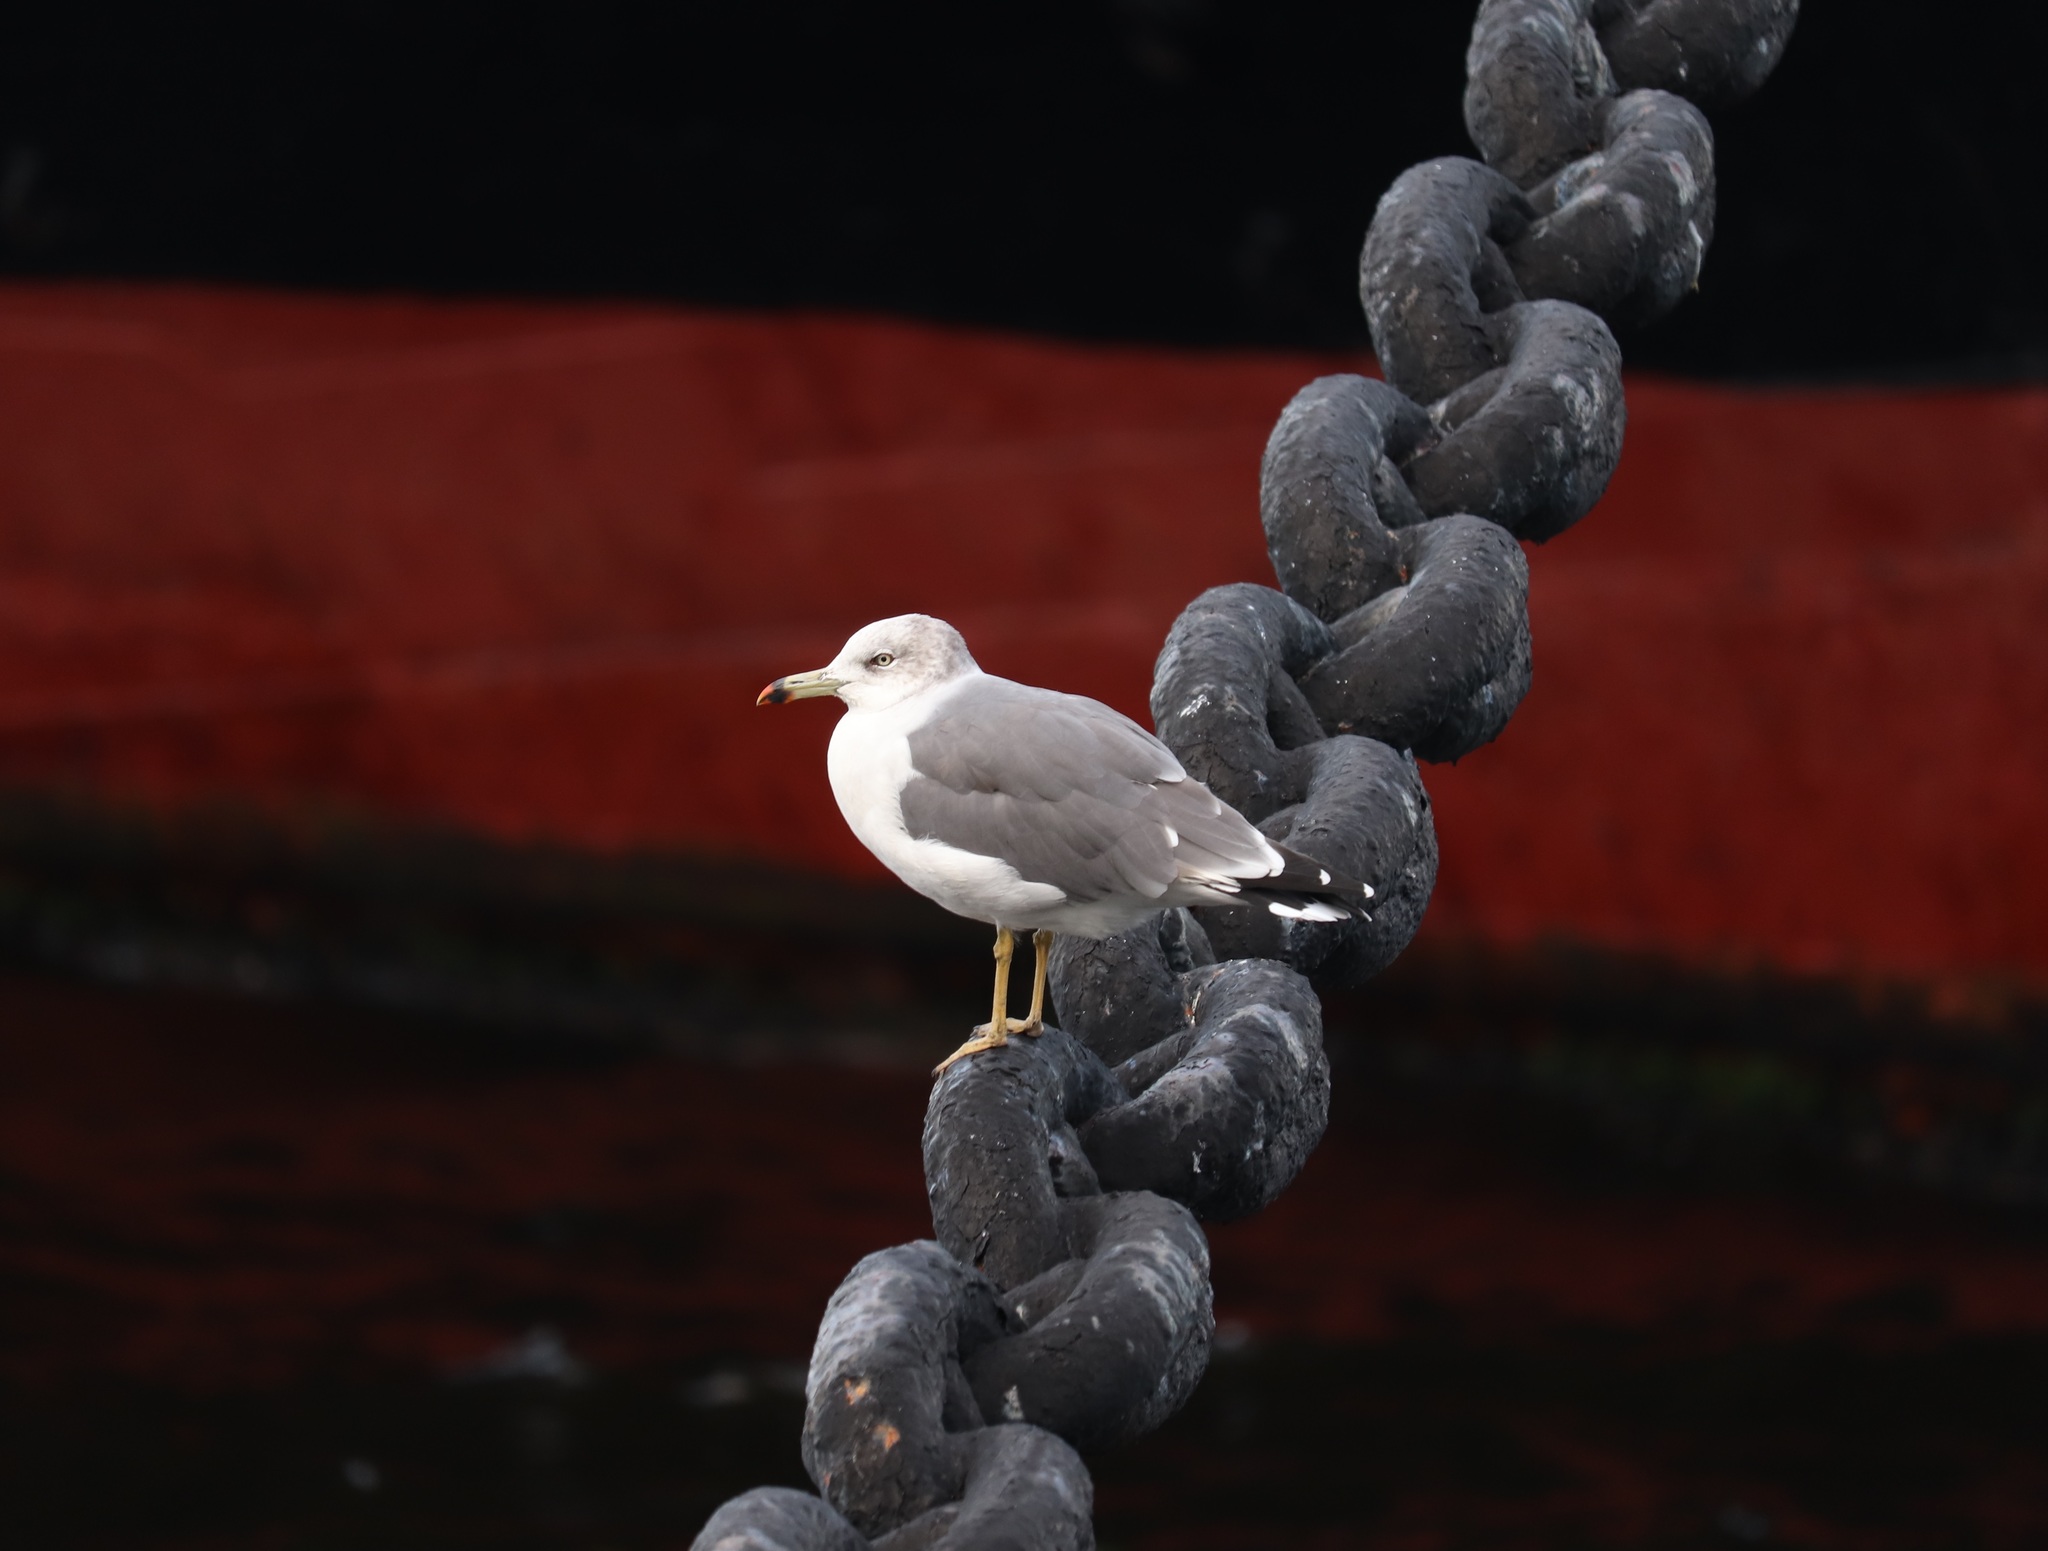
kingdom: Animalia
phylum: Chordata
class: Aves
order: Charadriiformes
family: Laridae
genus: Larus
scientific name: Larus crassirostris
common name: Black-tailed gull
